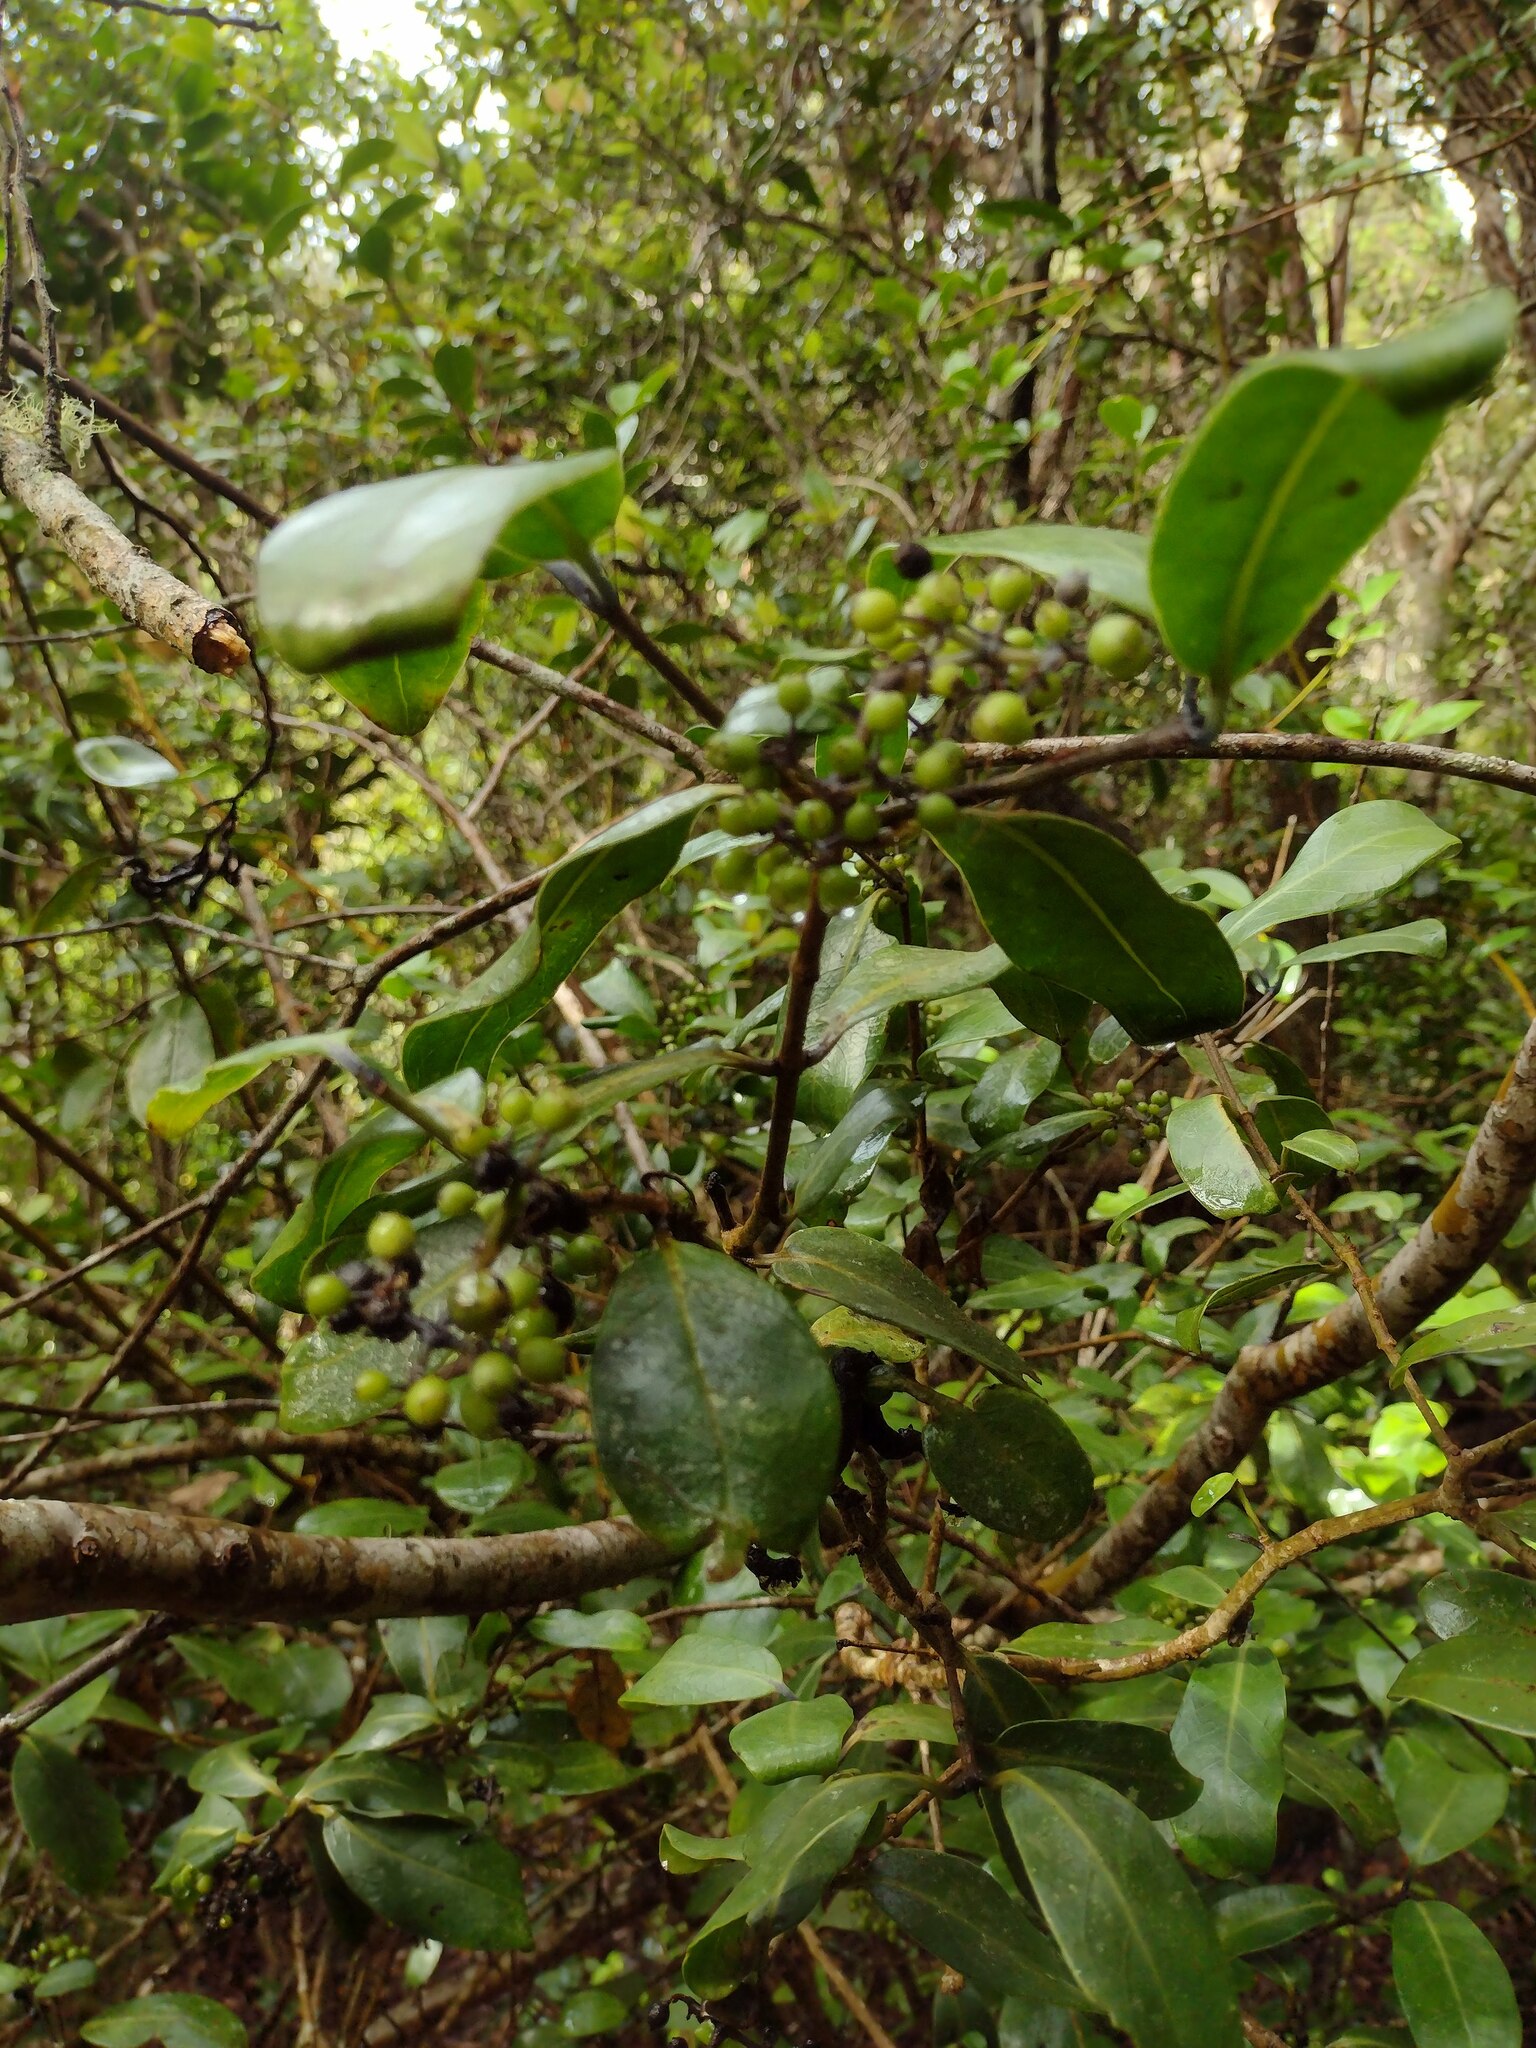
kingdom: Plantae
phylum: Tracheophyta
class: Magnoliopsida
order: Gentianales
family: Rubiaceae
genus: Kadua
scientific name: Kadua affinis
